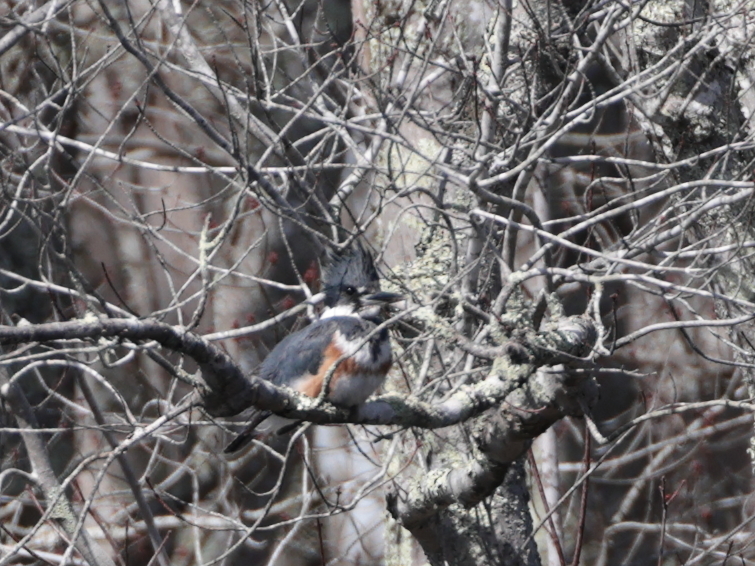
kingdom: Animalia
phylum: Chordata
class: Aves
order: Coraciiformes
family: Alcedinidae
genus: Megaceryle
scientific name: Megaceryle alcyon
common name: Belted kingfisher
